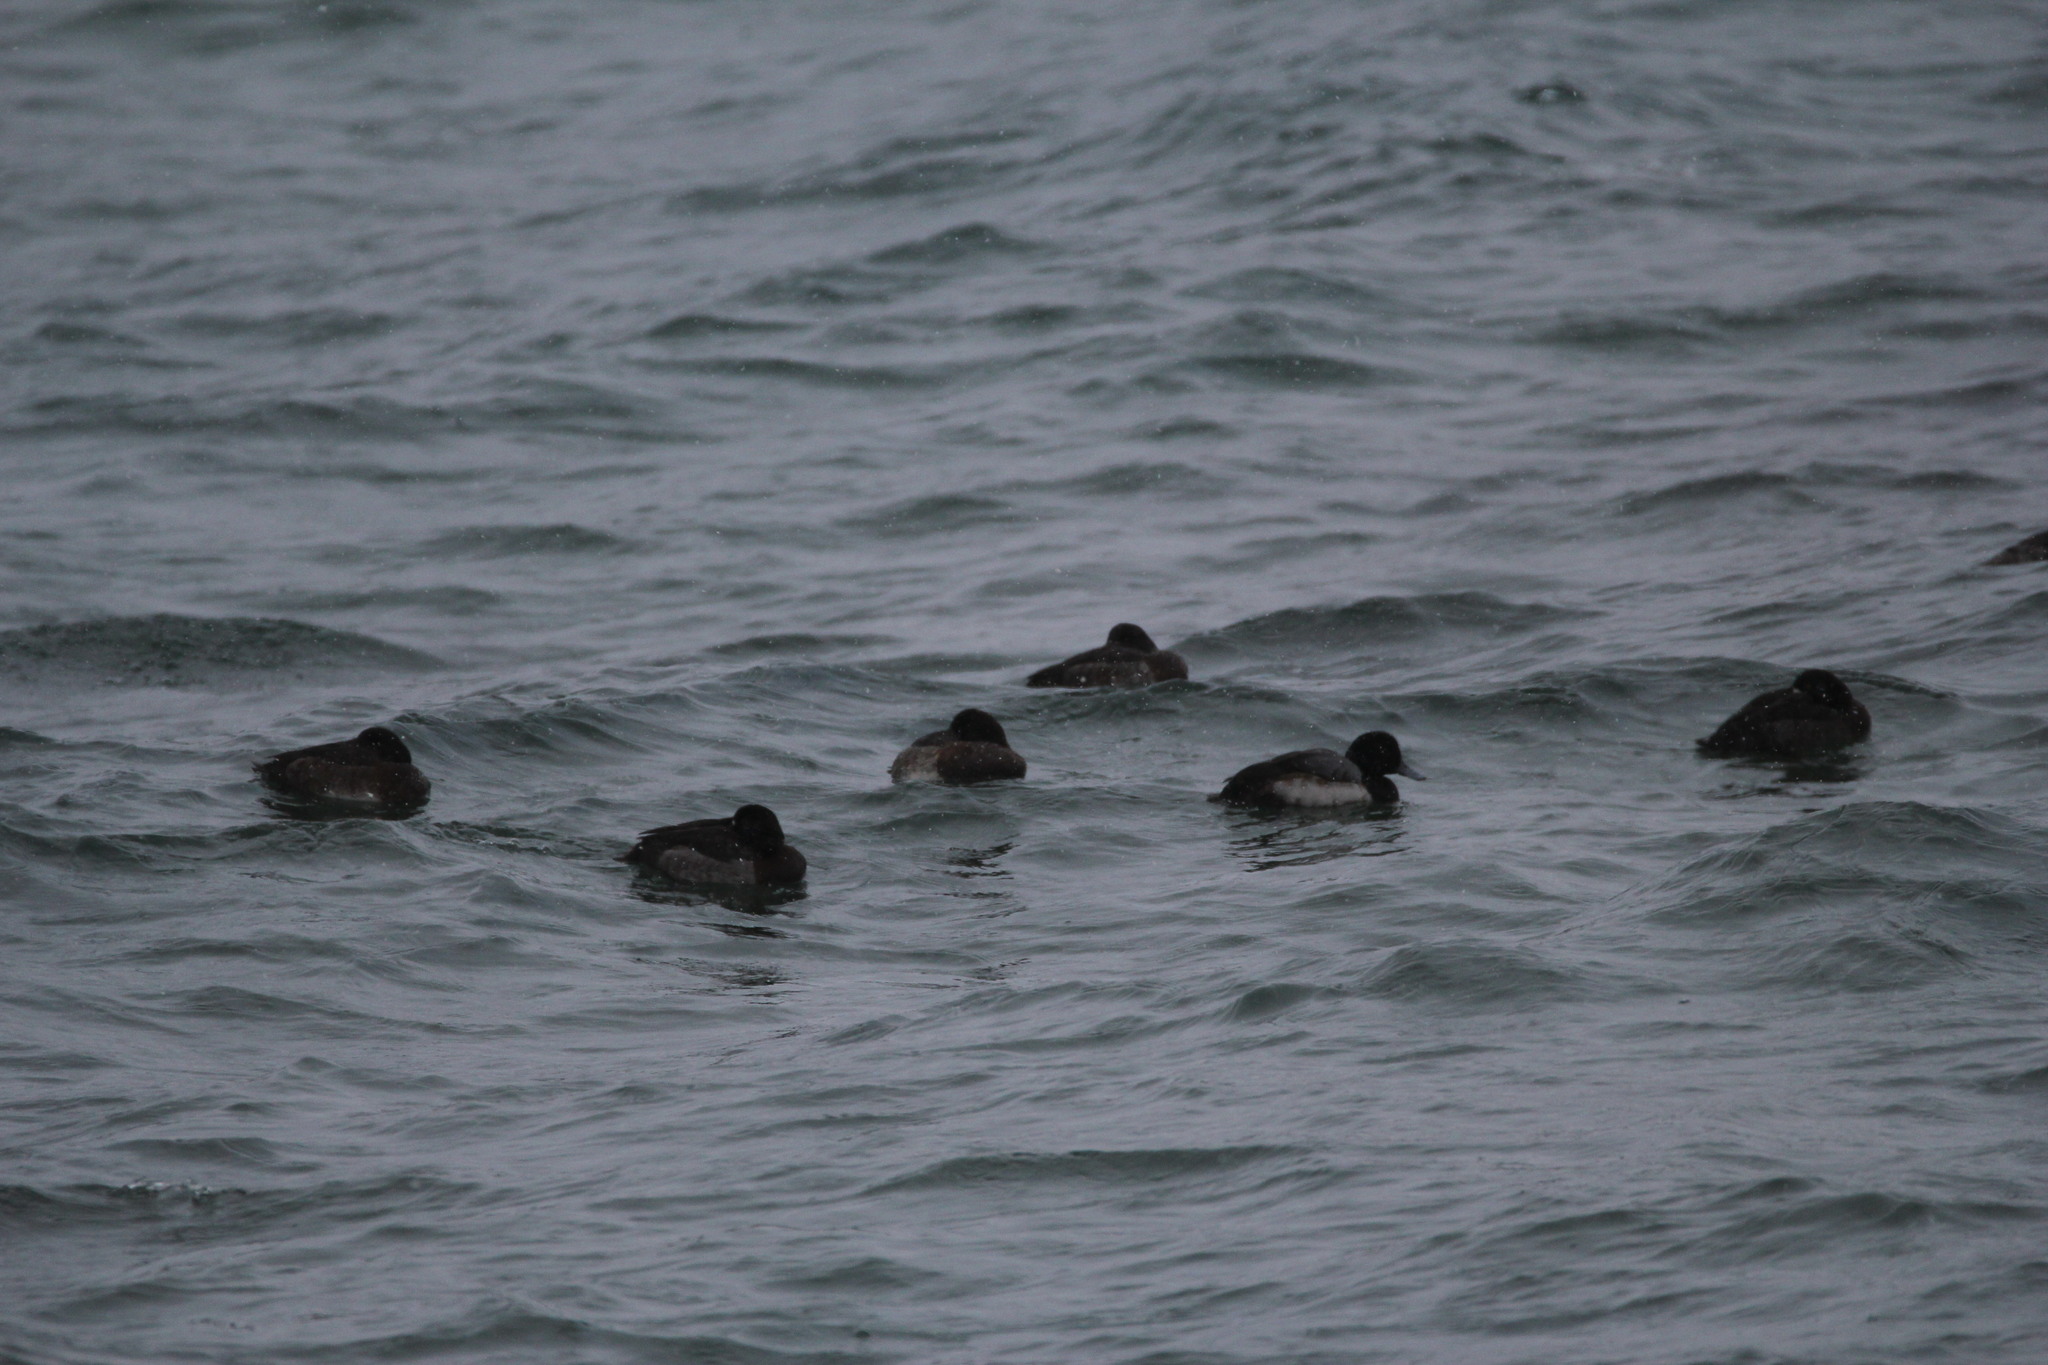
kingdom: Animalia
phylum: Chordata
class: Aves
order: Anseriformes
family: Anatidae
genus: Aythya
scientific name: Aythya marila
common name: Greater scaup
